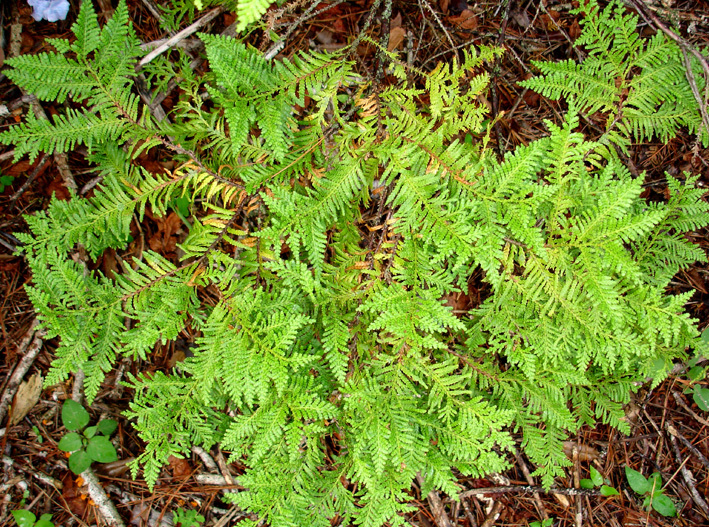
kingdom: Plantae
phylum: Tracheophyta
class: Pinopsida
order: Pinales
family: Cupressaceae
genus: Libocedrus
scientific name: Libocedrus plumosa
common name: New zealand cedar
